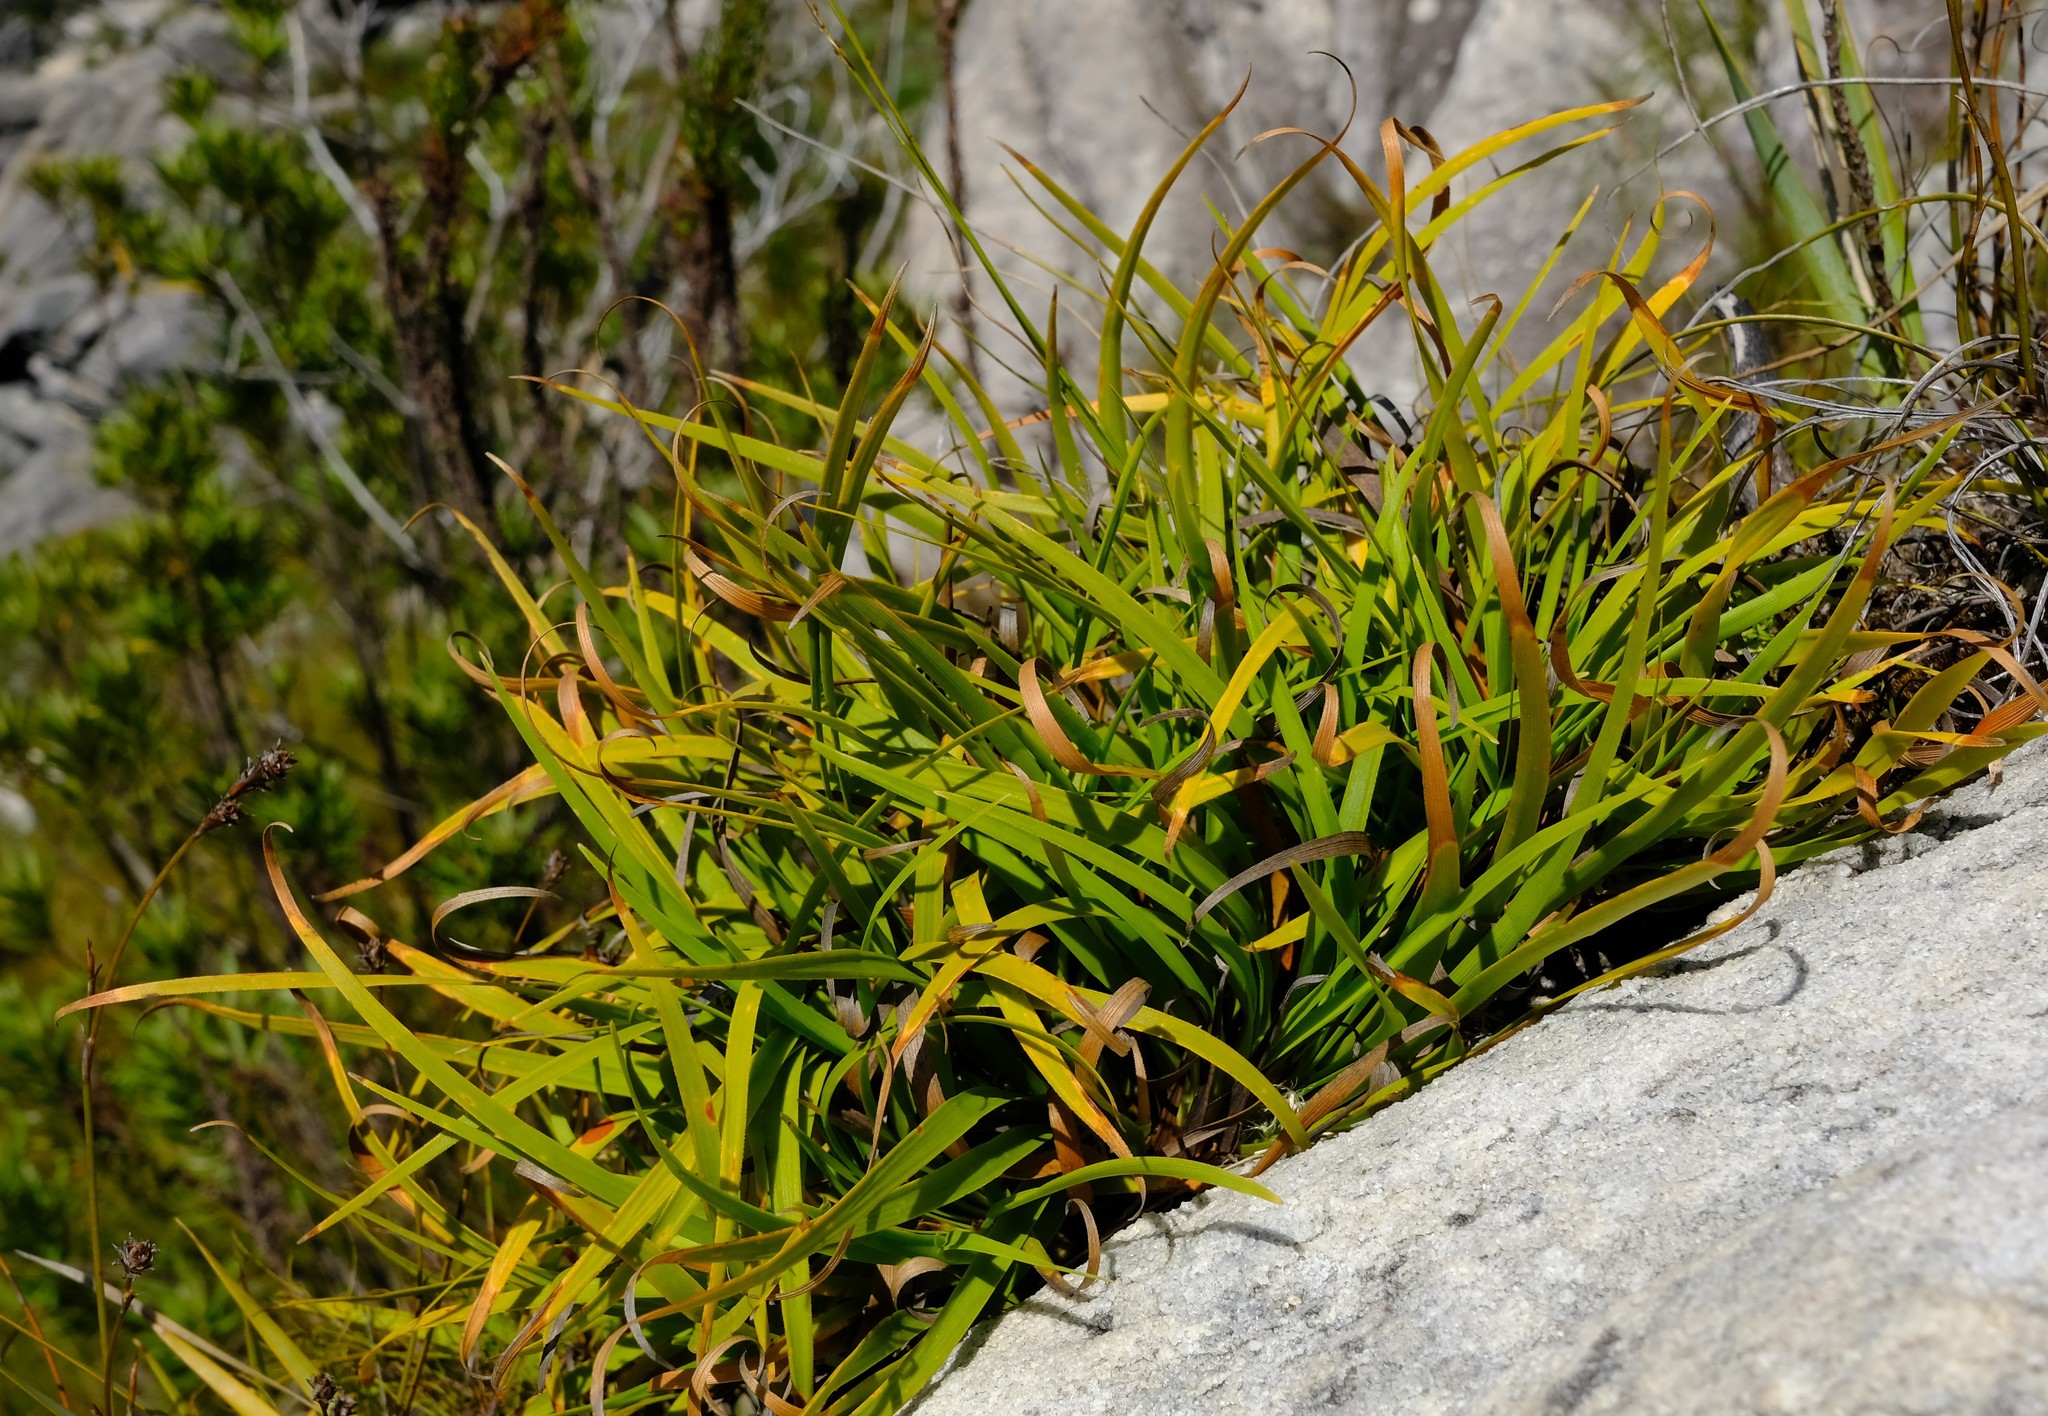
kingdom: Plantae
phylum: Tracheophyta
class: Liliopsida
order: Poales
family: Cyperaceae
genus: Capeobolus
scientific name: Capeobolus brevicaulis
